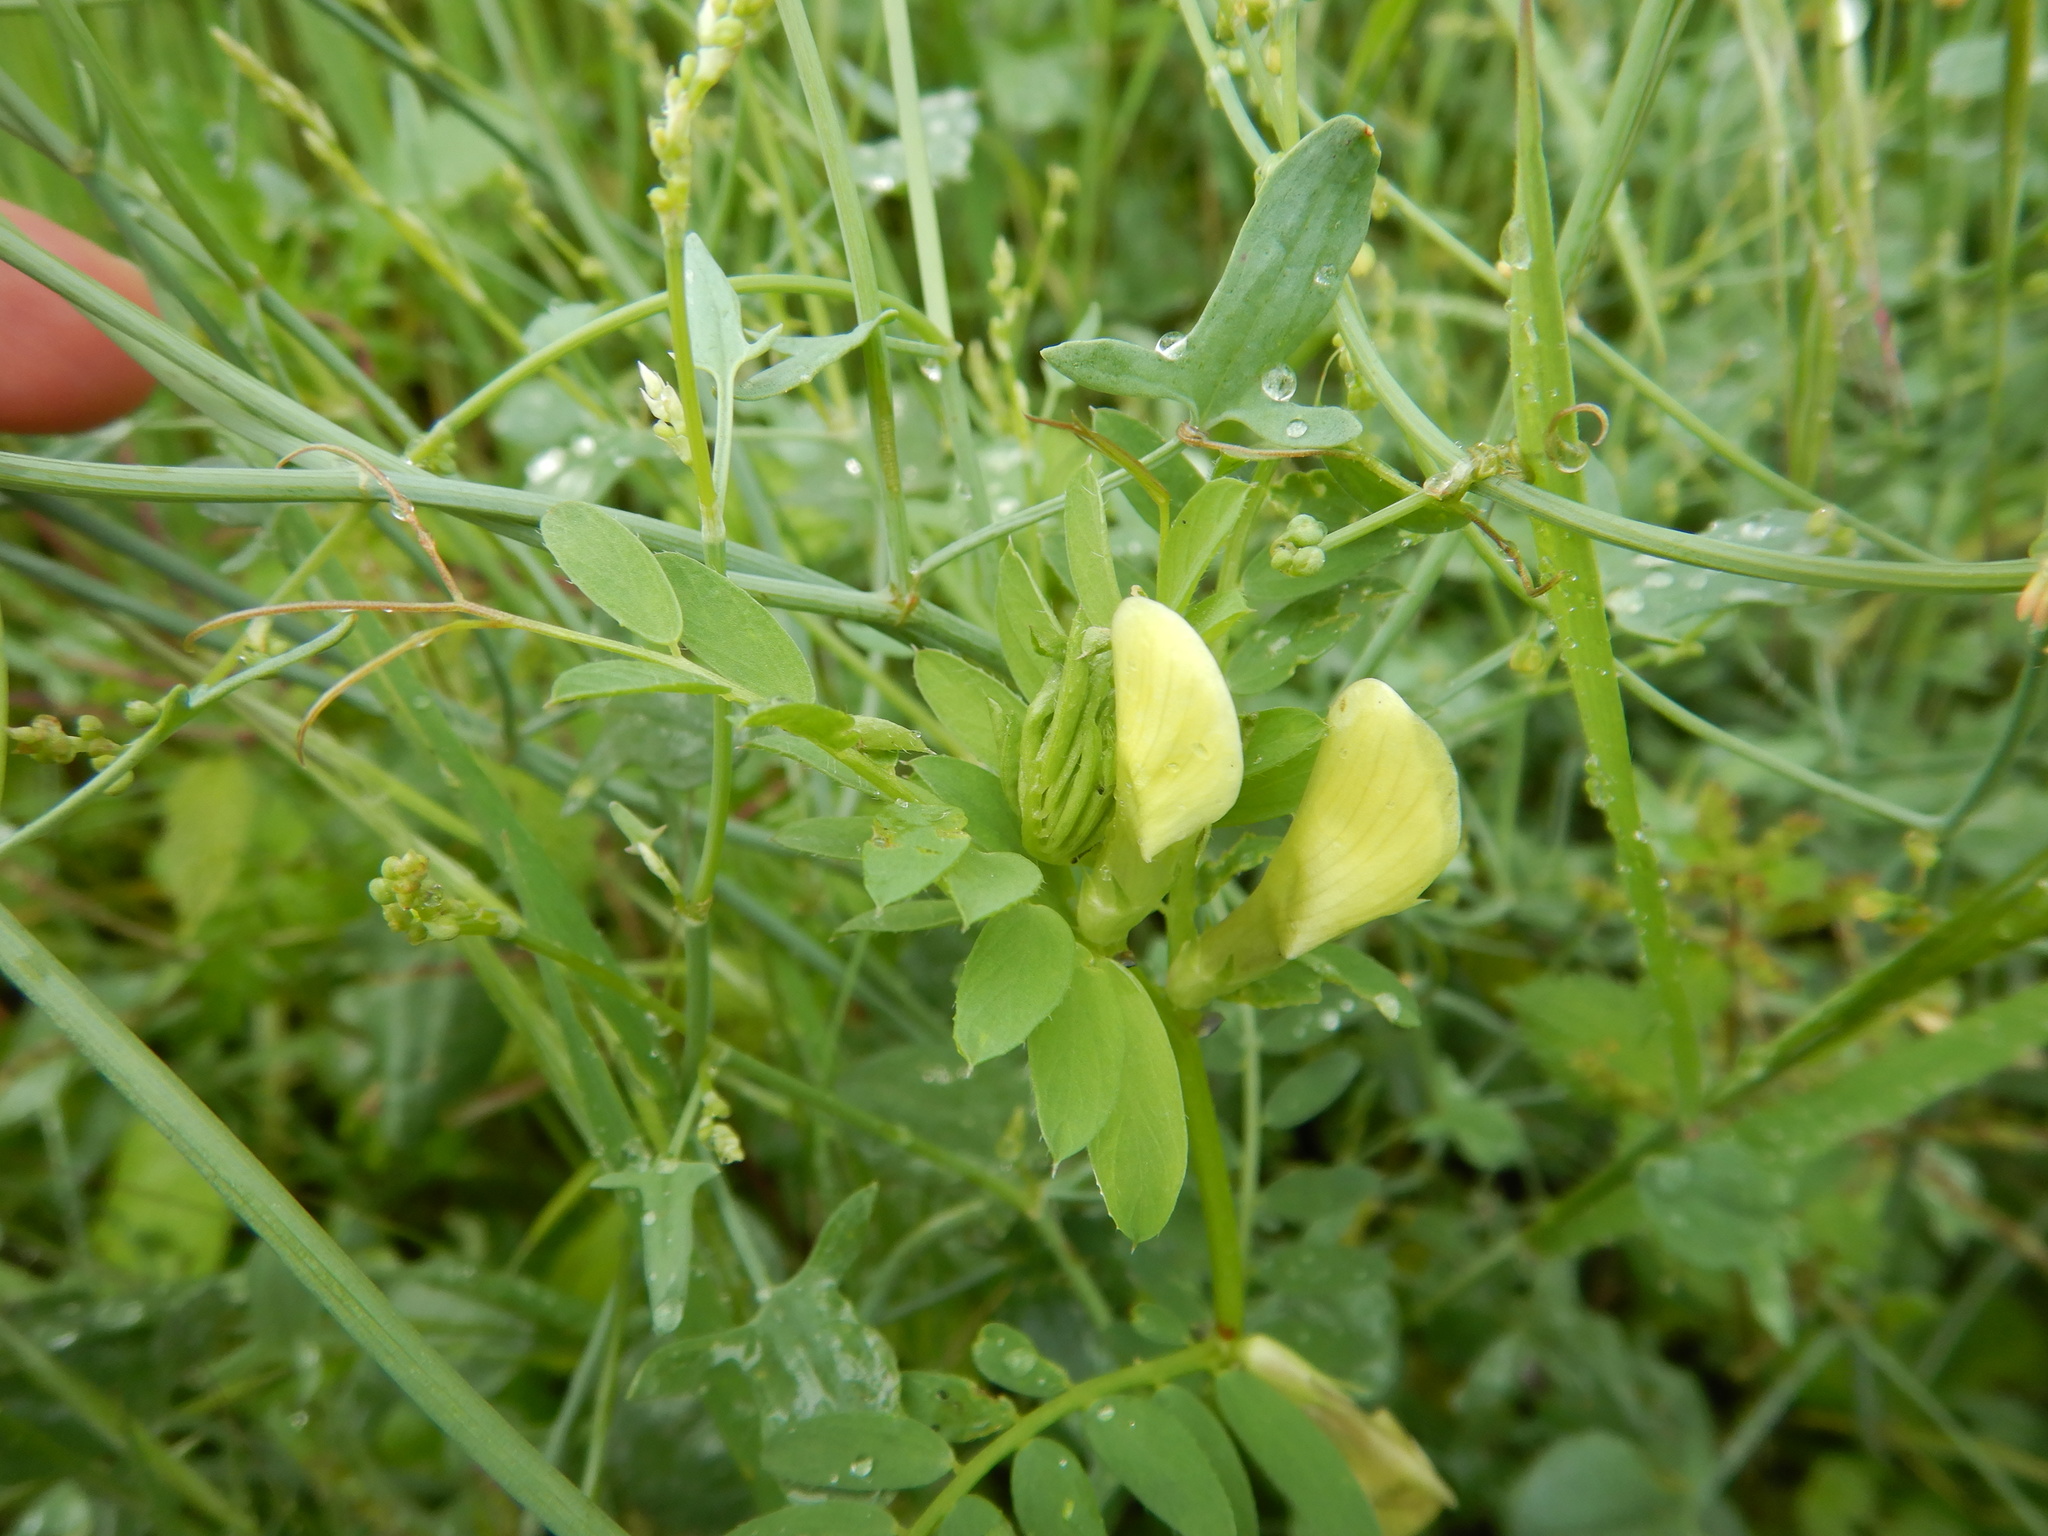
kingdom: Plantae
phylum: Tracheophyta
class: Magnoliopsida
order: Fabales
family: Fabaceae
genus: Vicia
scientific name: Vicia lutea
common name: Smooth yellow vetch
